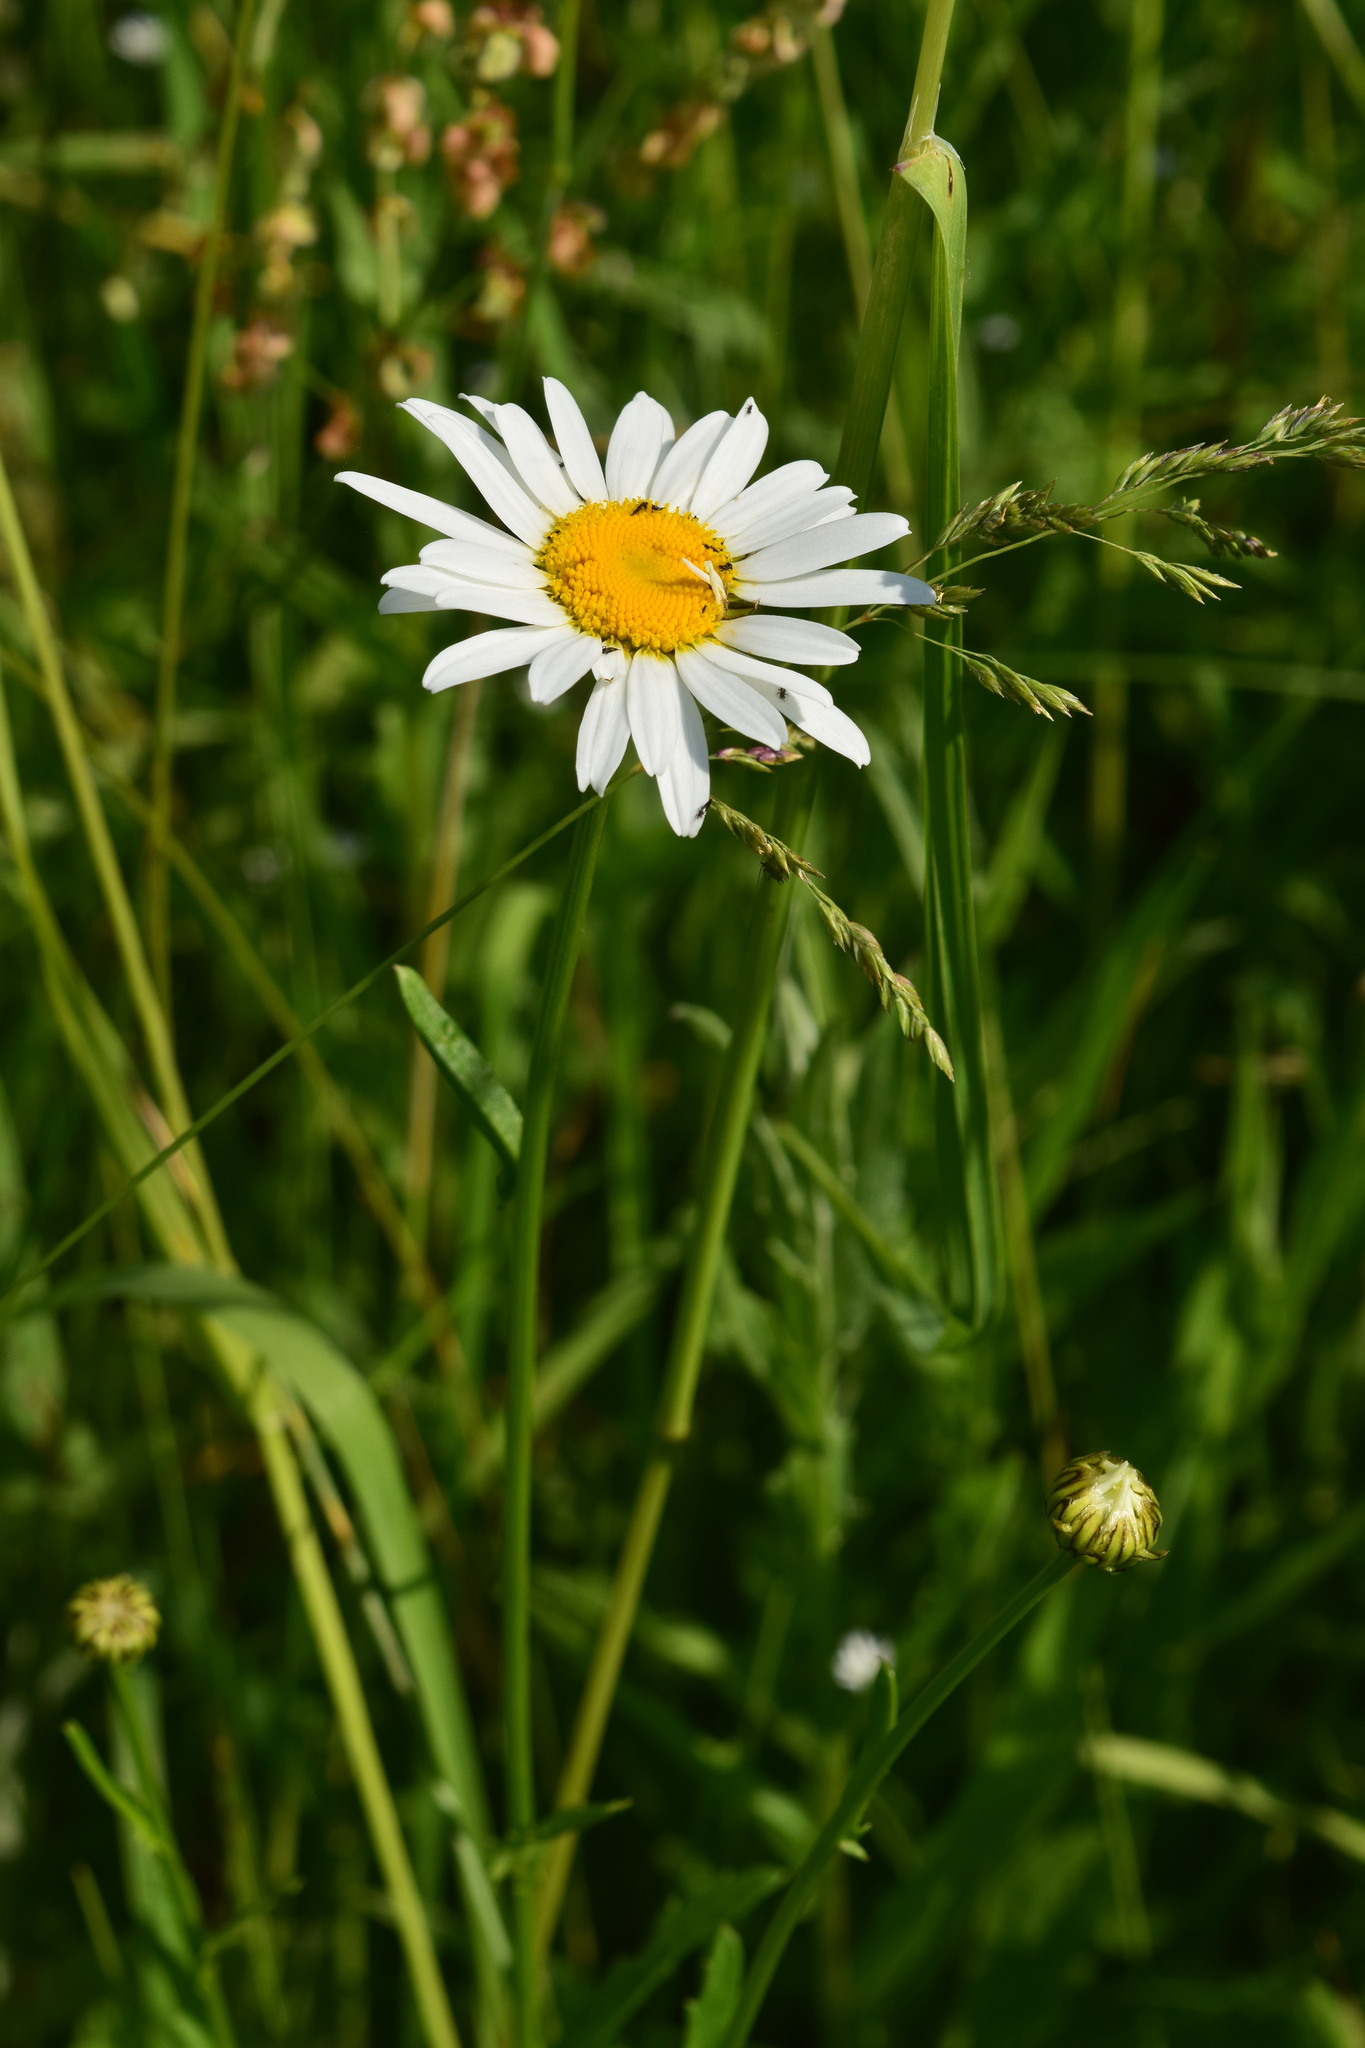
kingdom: Plantae
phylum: Tracheophyta
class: Magnoliopsida
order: Asterales
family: Asteraceae
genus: Leucanthemum
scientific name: Leucanthemum vulgare
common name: Oxeye daisy
